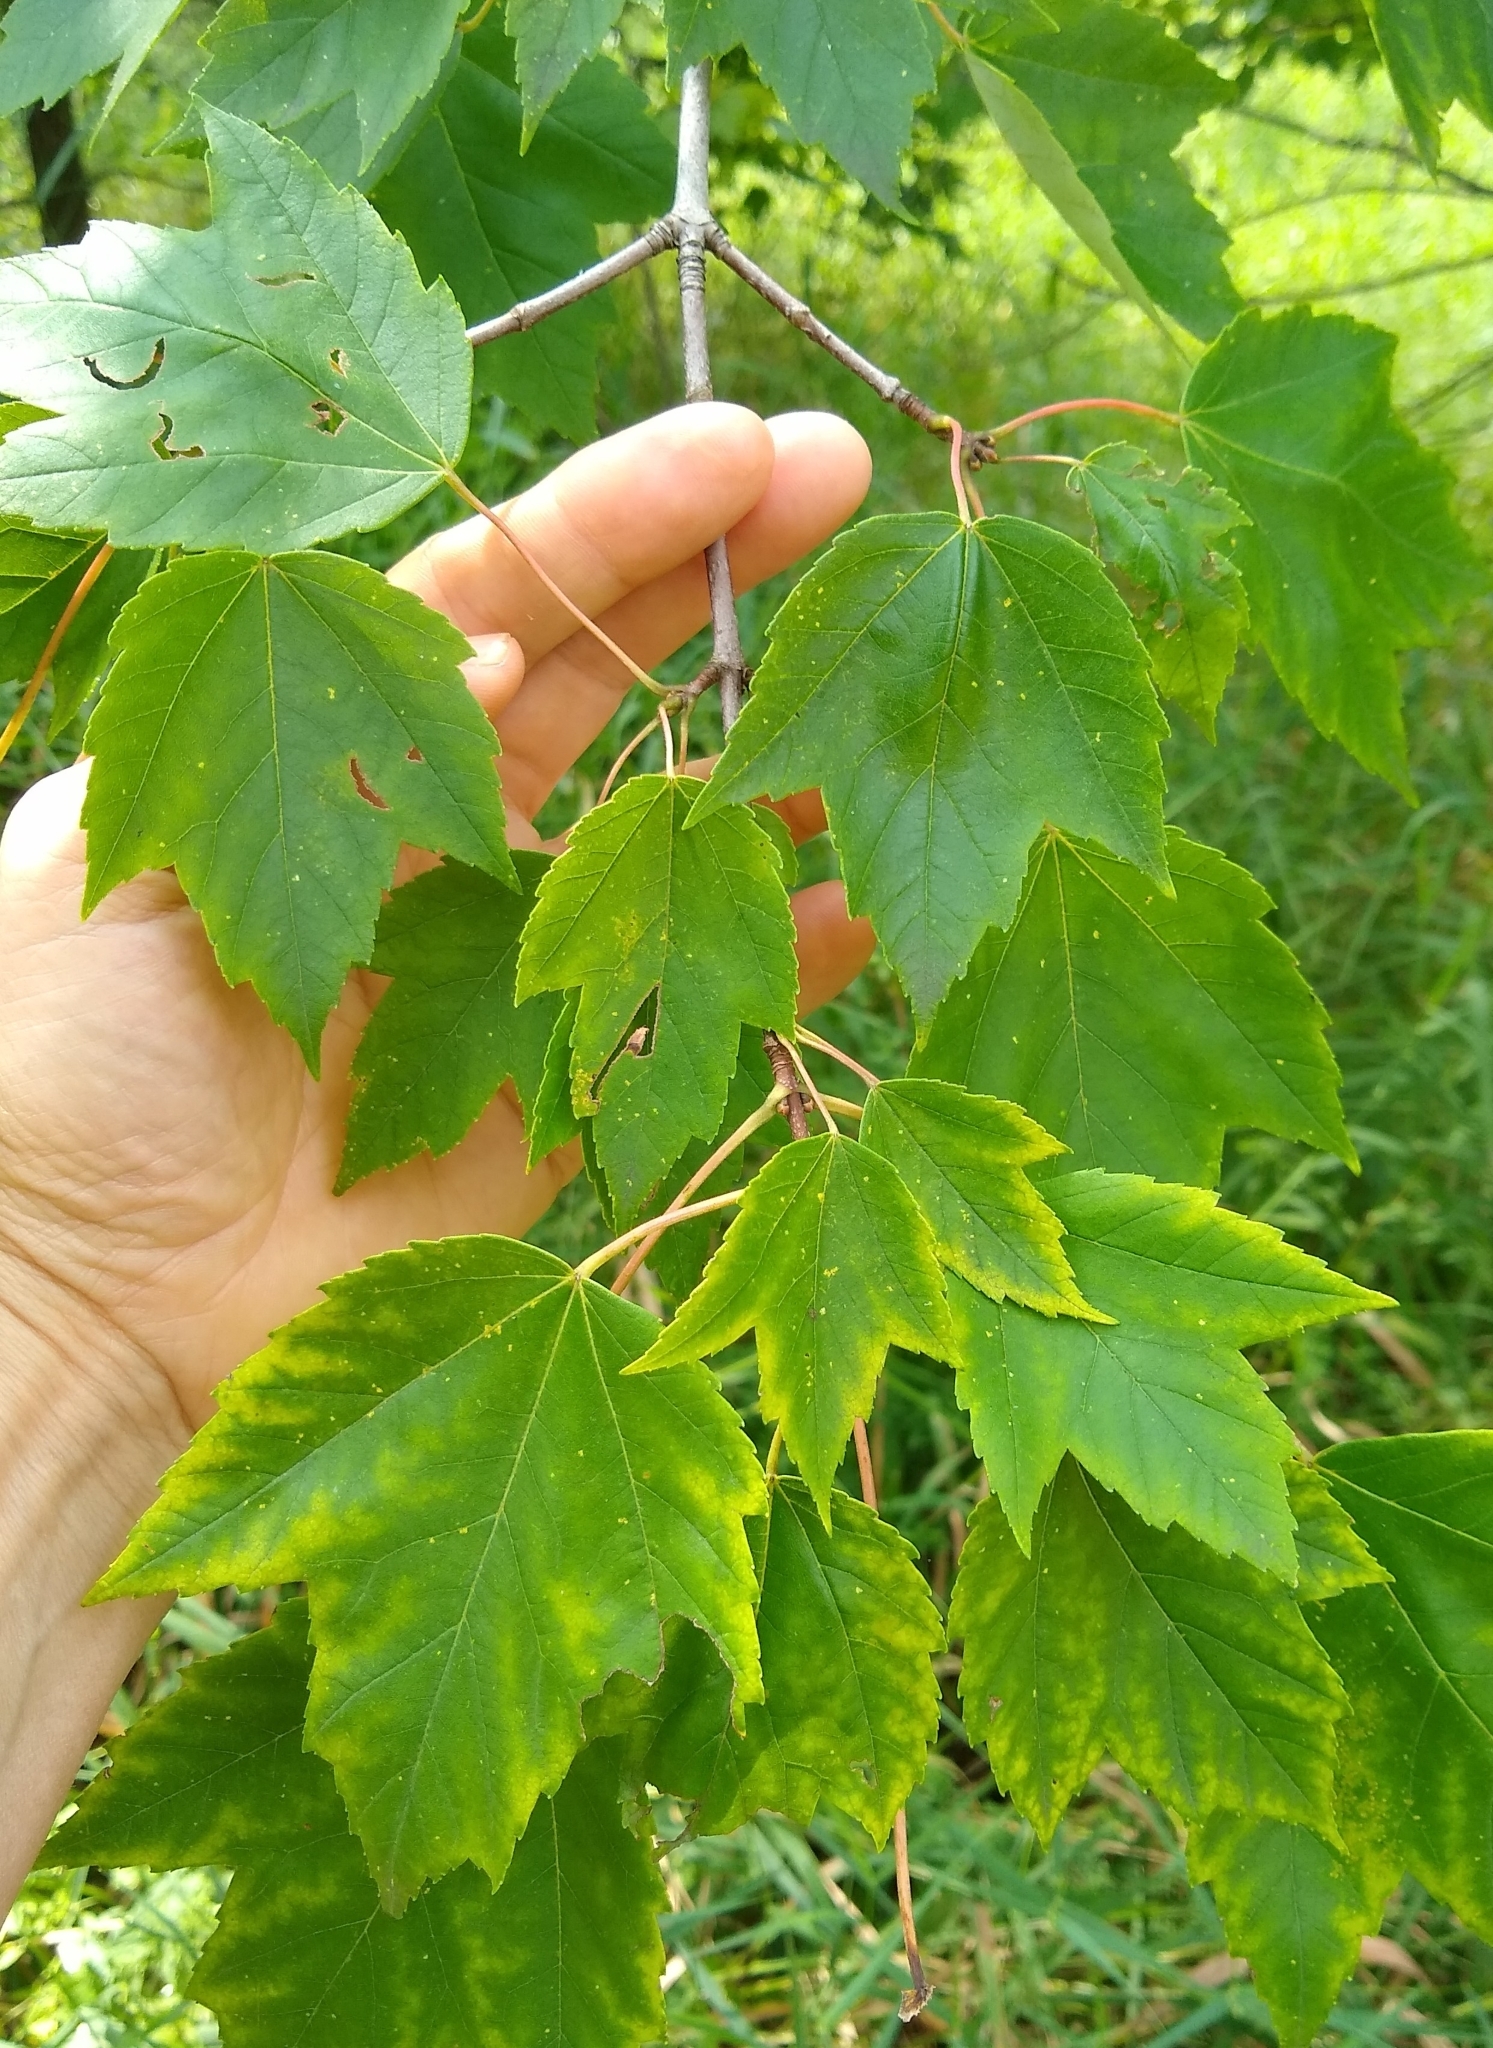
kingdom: Plantae
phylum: Tracheophyta
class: Magnoliopsida
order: Sapindales
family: Sapindaceae
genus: Acer
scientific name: Acer rubrum
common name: Red maple
